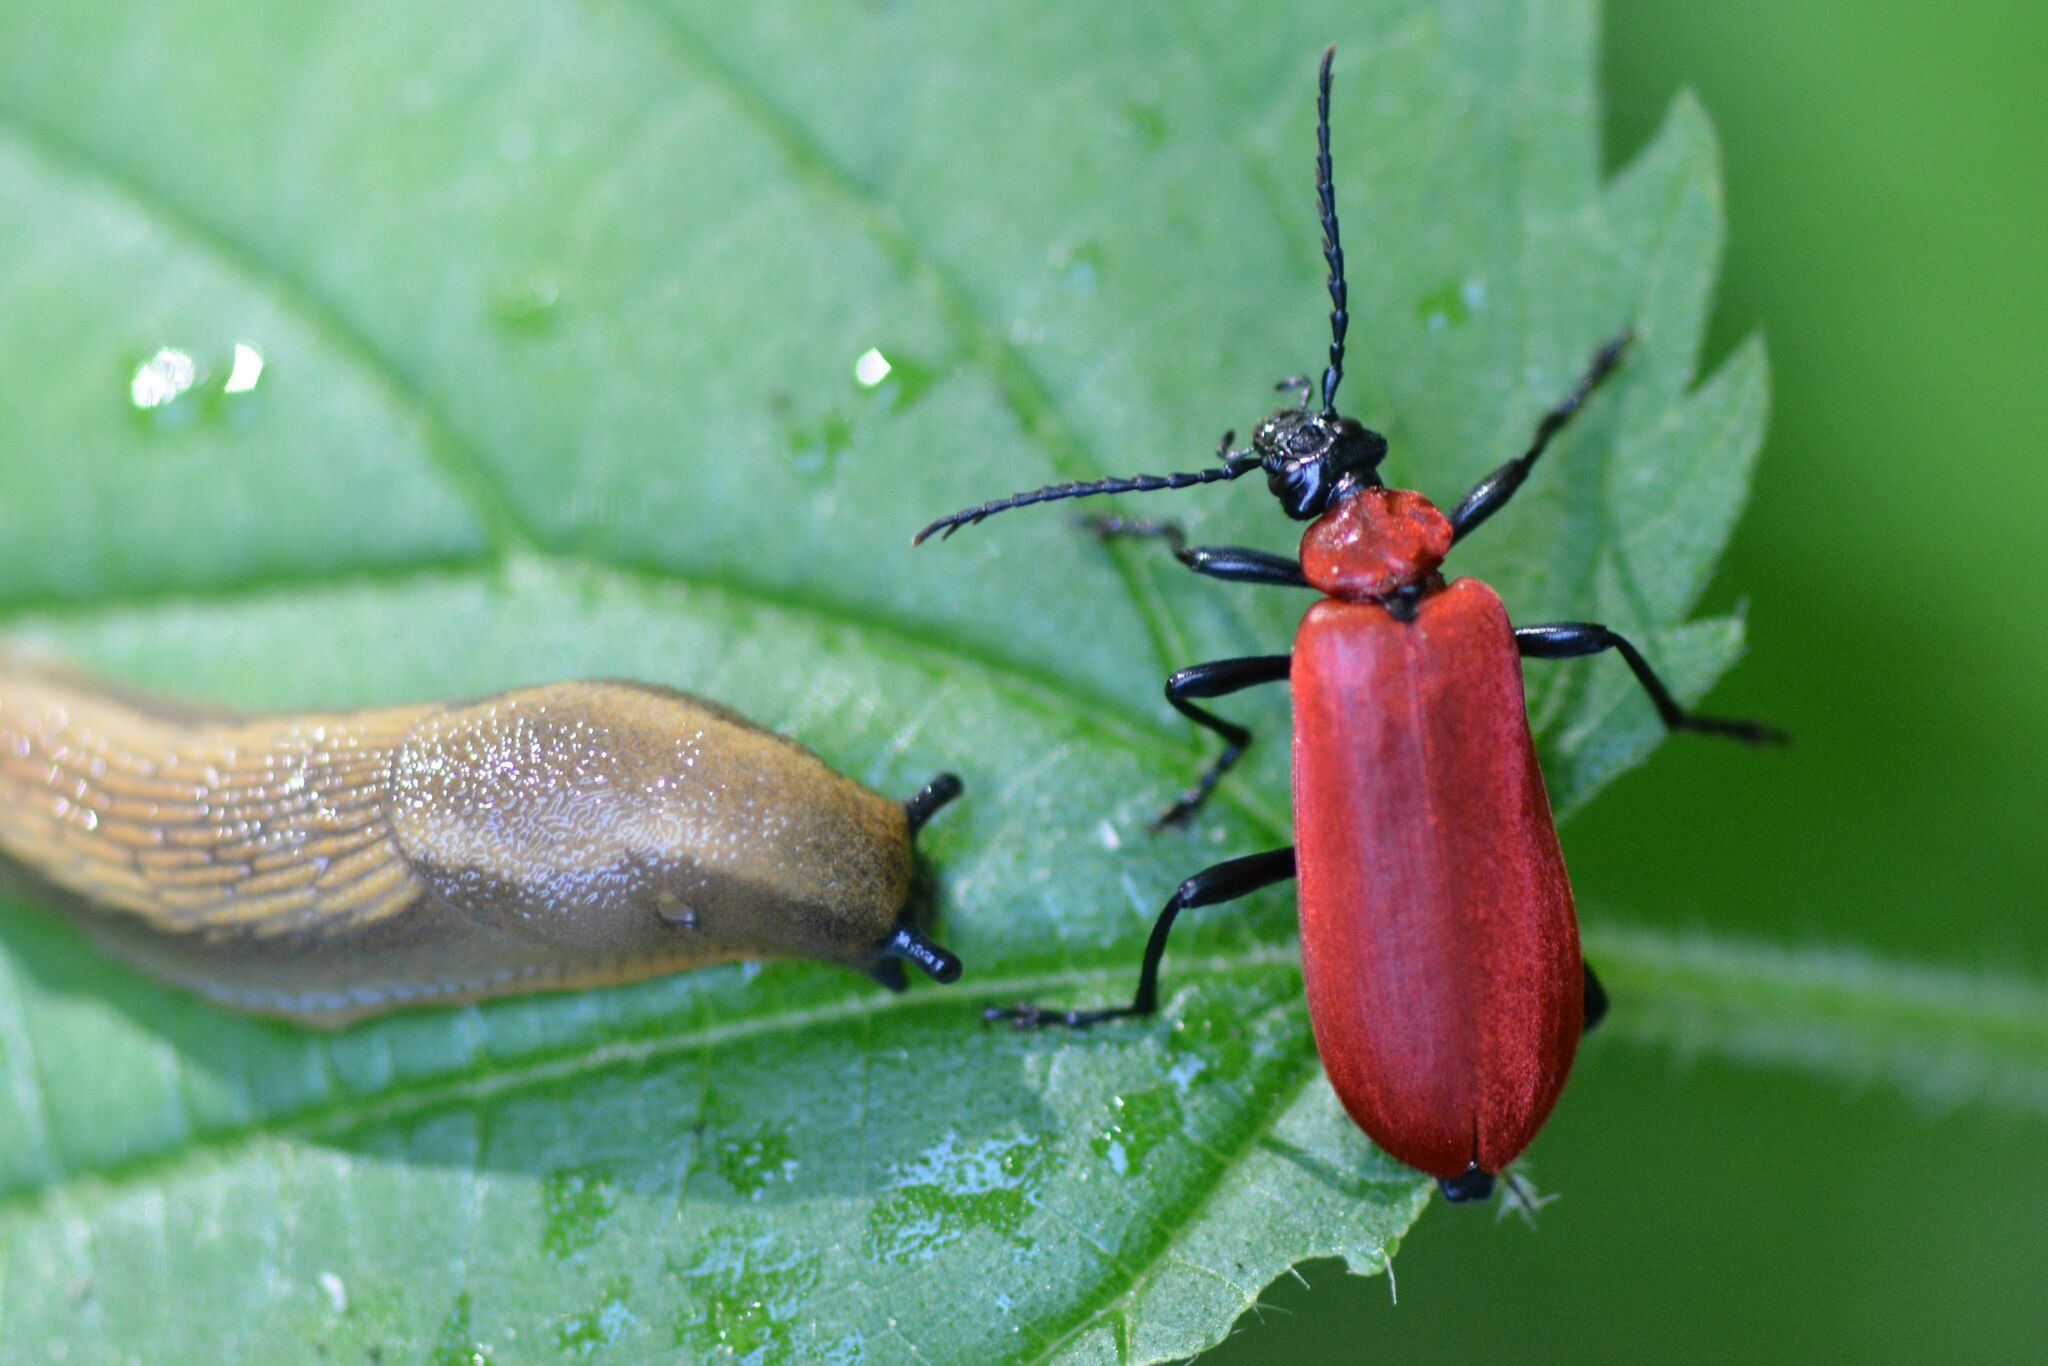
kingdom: Animalia
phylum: Arthropoda
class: Insecta
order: Coleoptera
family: Pyrochroidae
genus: Pyrochroa
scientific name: Pyrochroa coccinea
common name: Black-headed cardinal beetle
